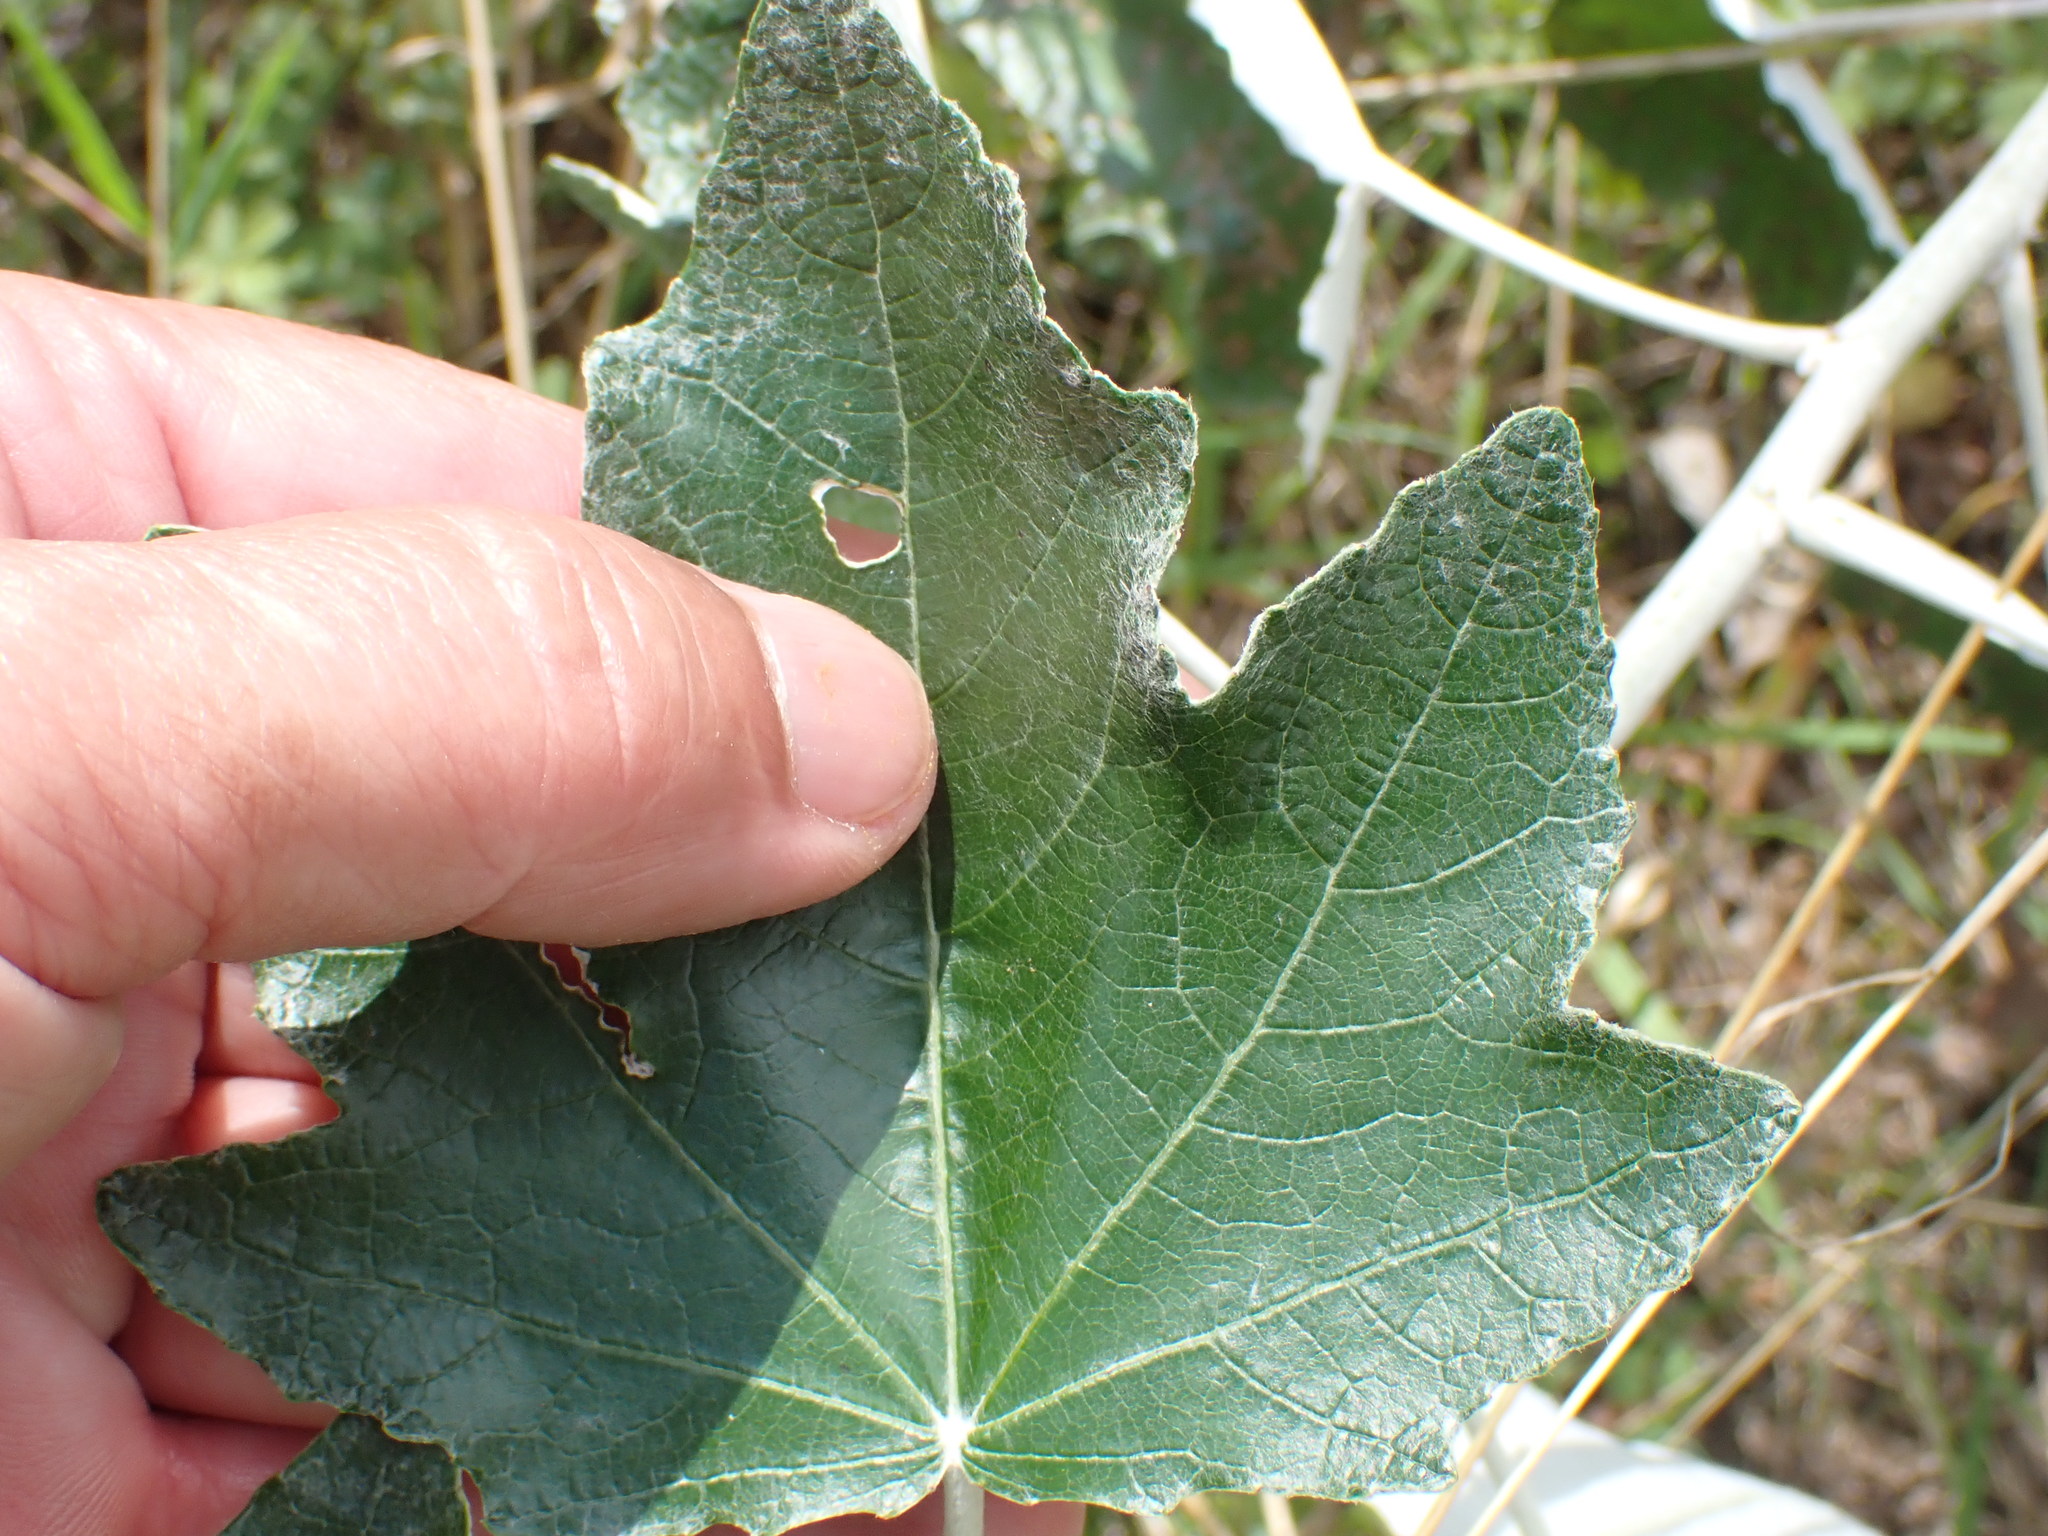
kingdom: Plantae
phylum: Tracheophyta
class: Magnoliopsida
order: Malpighiales
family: Salicaceae
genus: Populus
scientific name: Populus alba
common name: White poplar
